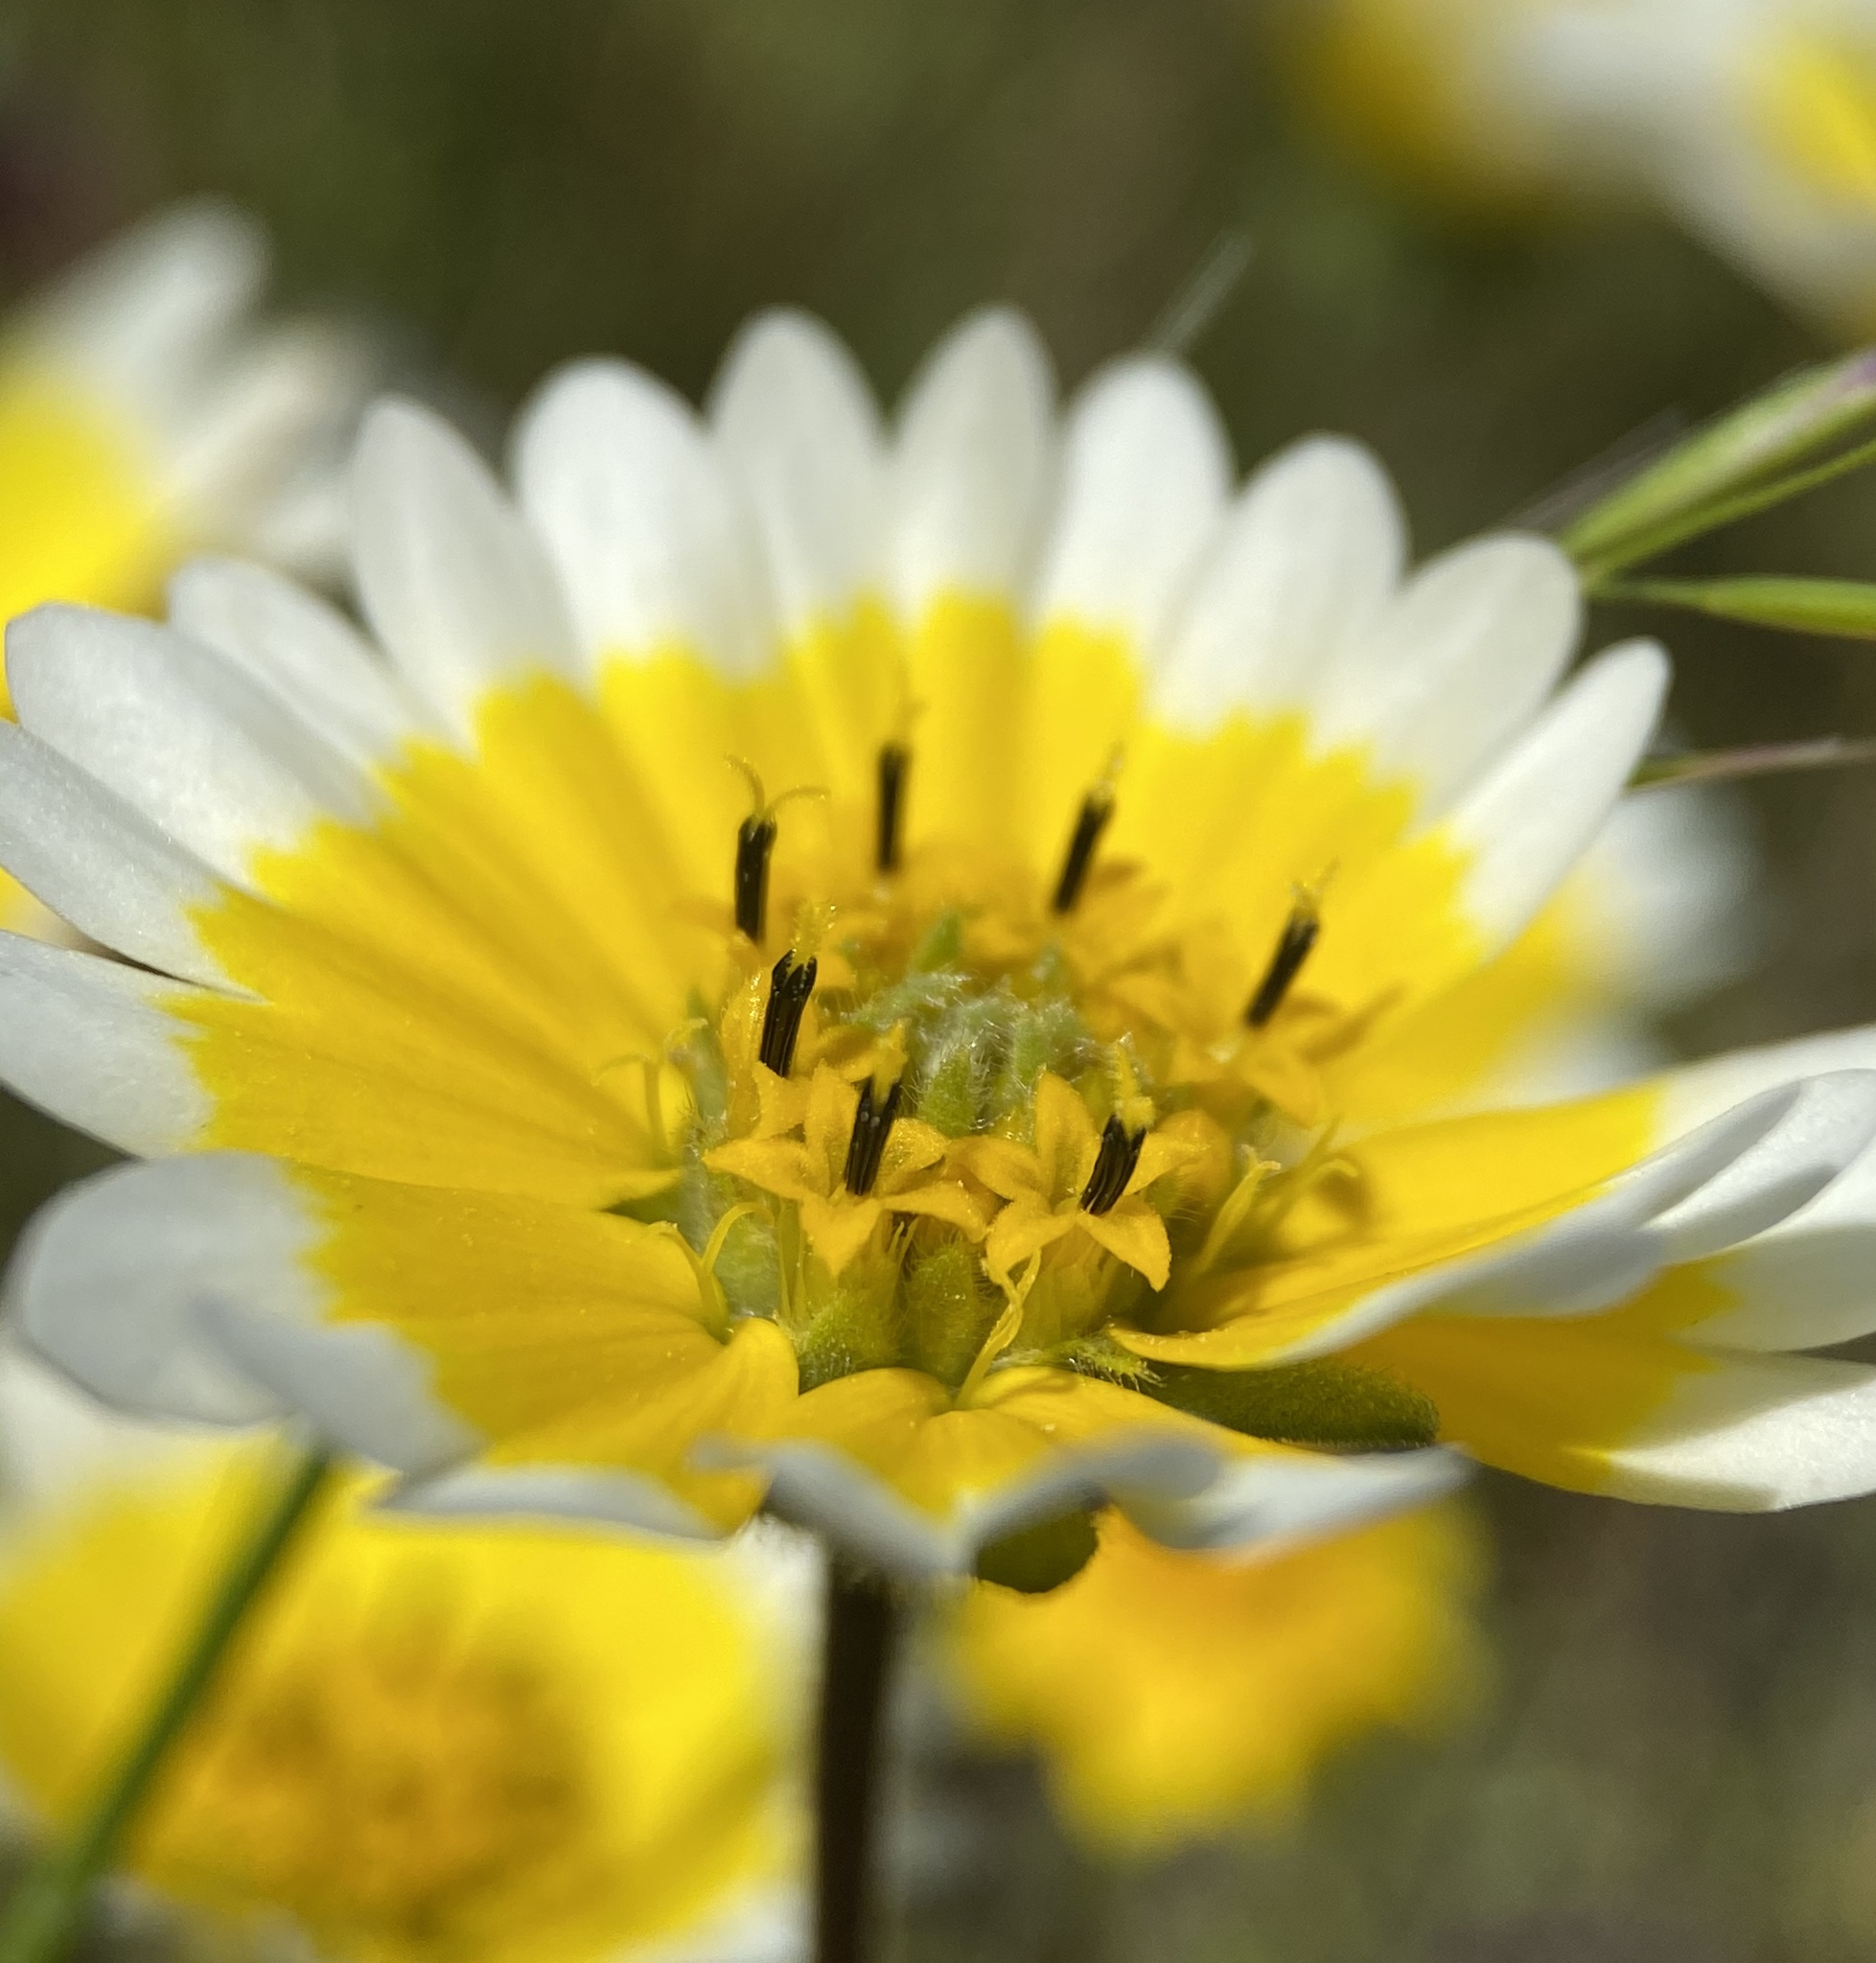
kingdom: Plantae
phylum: Tracheophyta
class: Magnoliopsida
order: Asterales
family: Asteraceae
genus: Layia
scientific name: Layia fremontii
